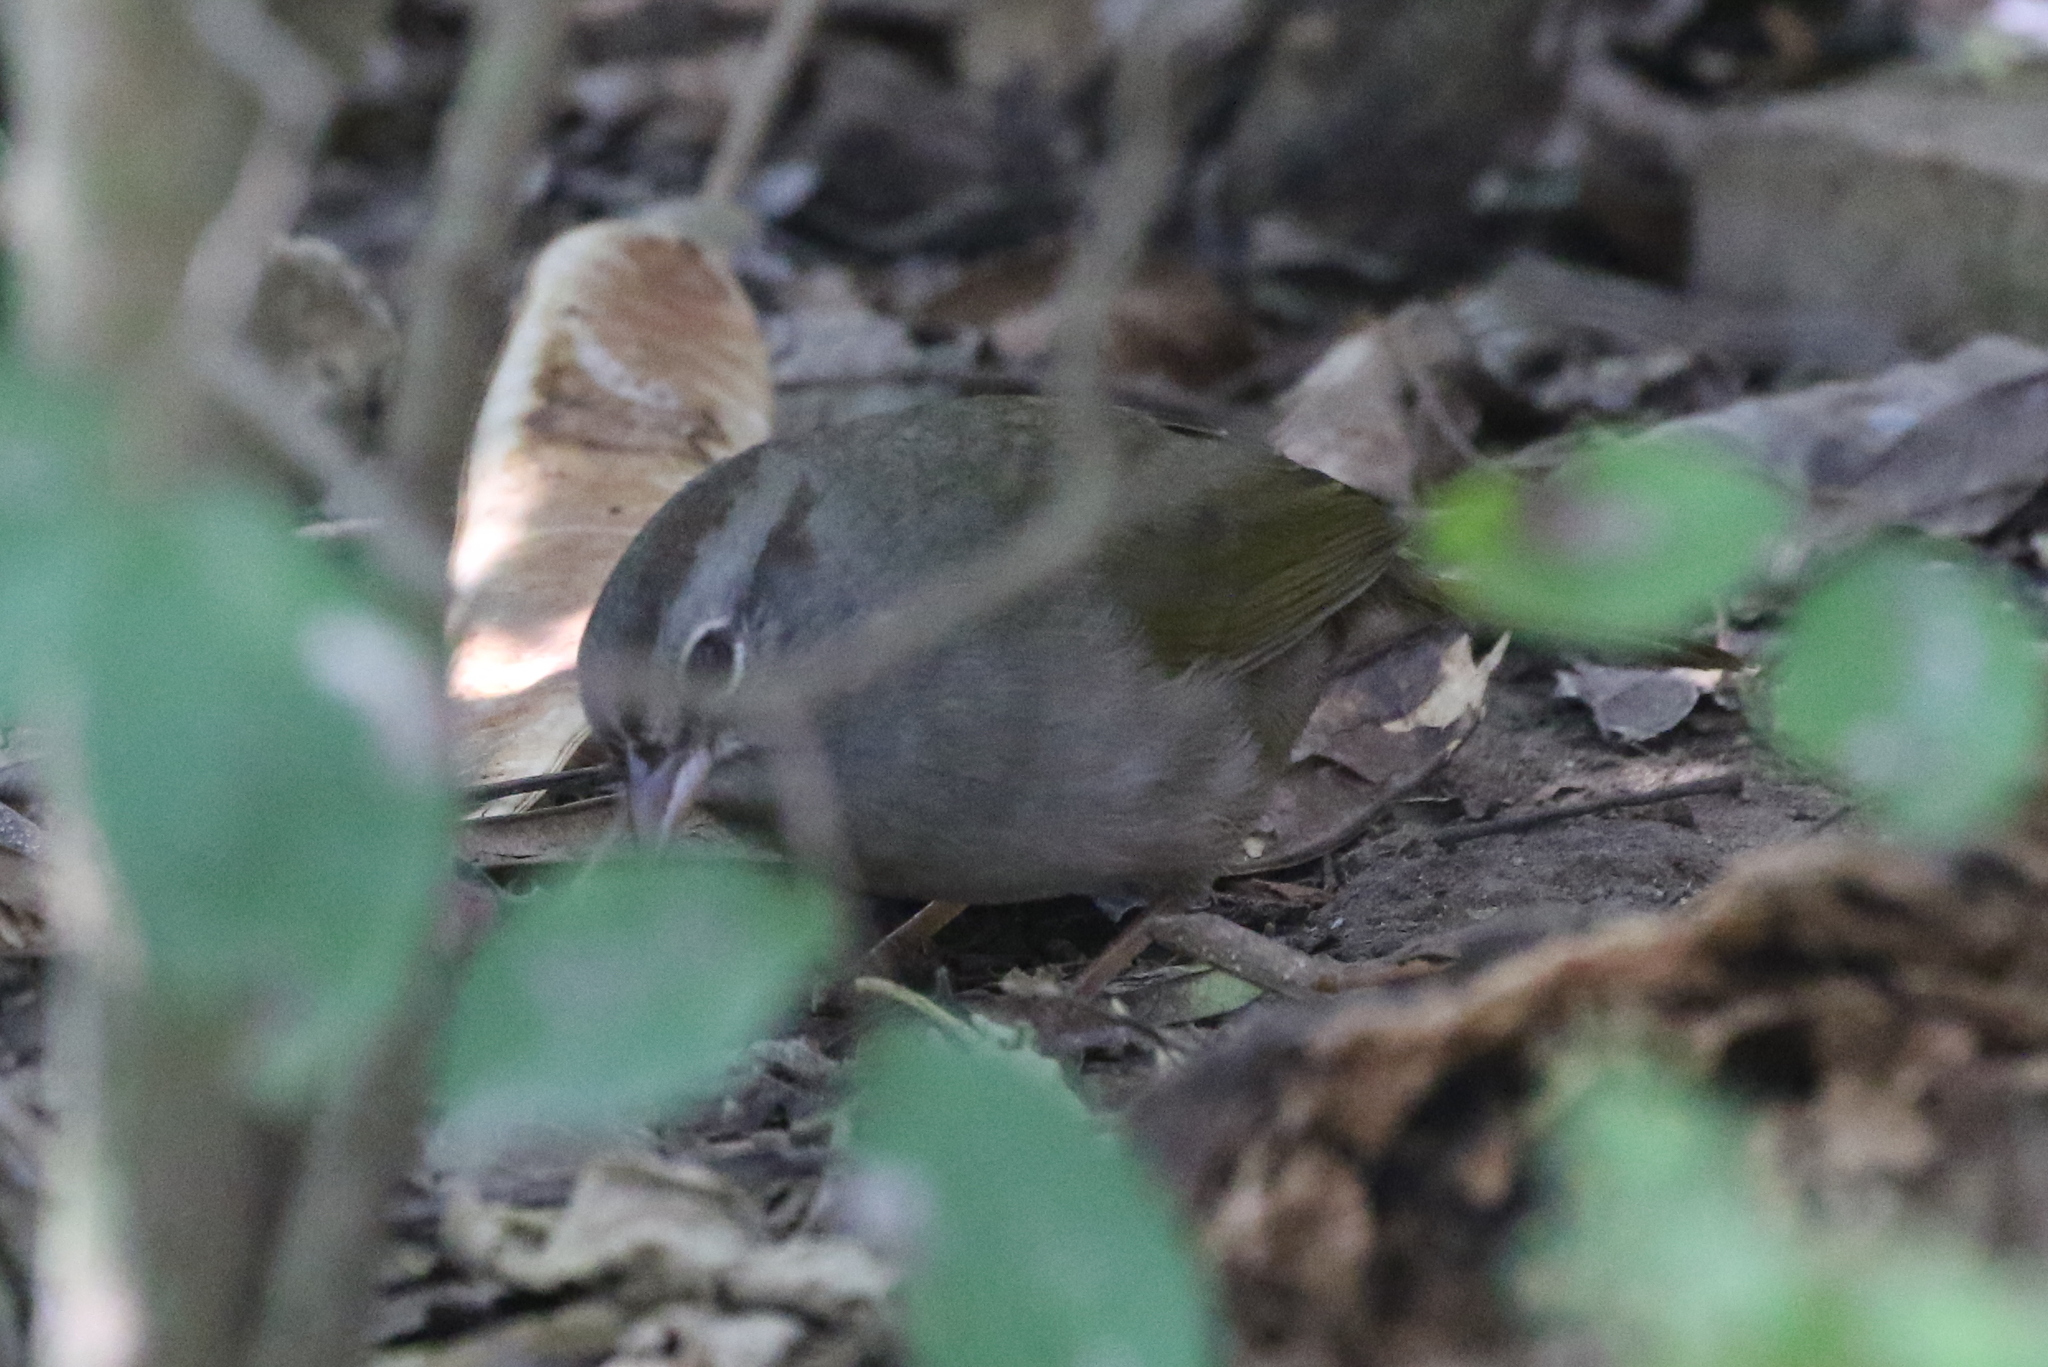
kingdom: Animalia
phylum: Chordata
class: Aves
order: Passeriformes
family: Passerellidae
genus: Arremonops
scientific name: Arremonops rufivirgatus
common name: Olive sparrow
